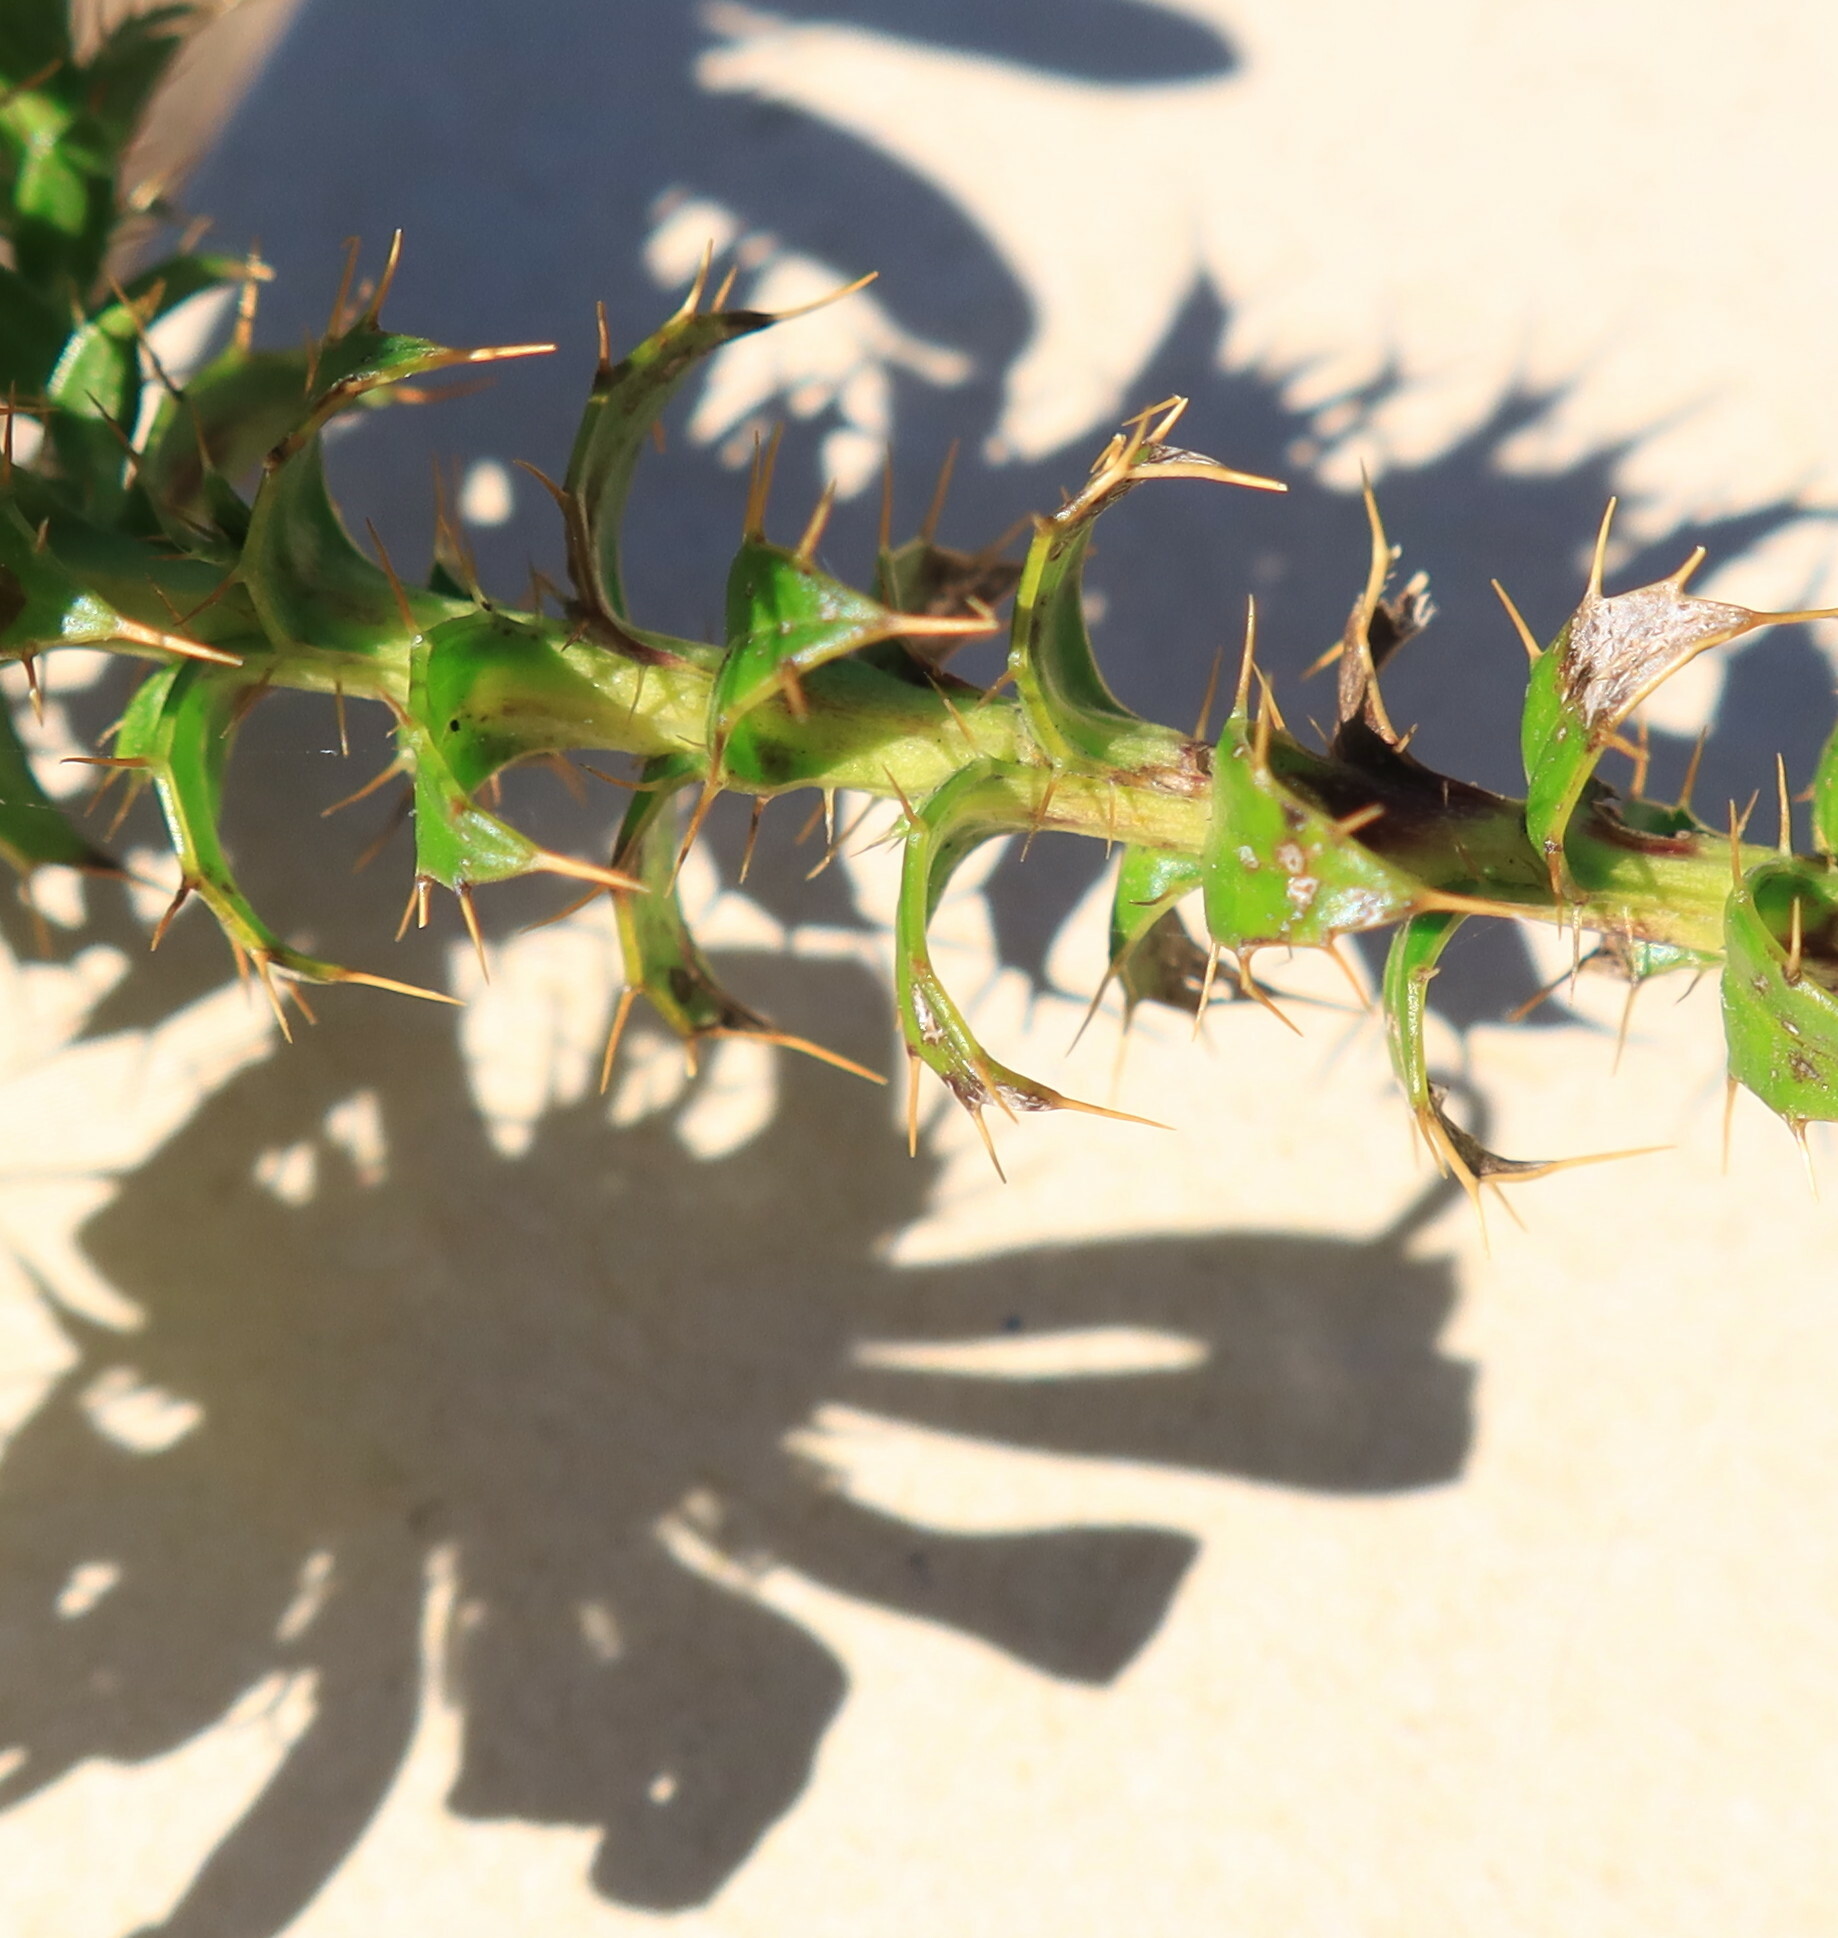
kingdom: Plantae
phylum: Tracheophyta
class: Magnoliopsida
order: Asterales
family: Asteraceae
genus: Cullumia
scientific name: Cullumia setosa
